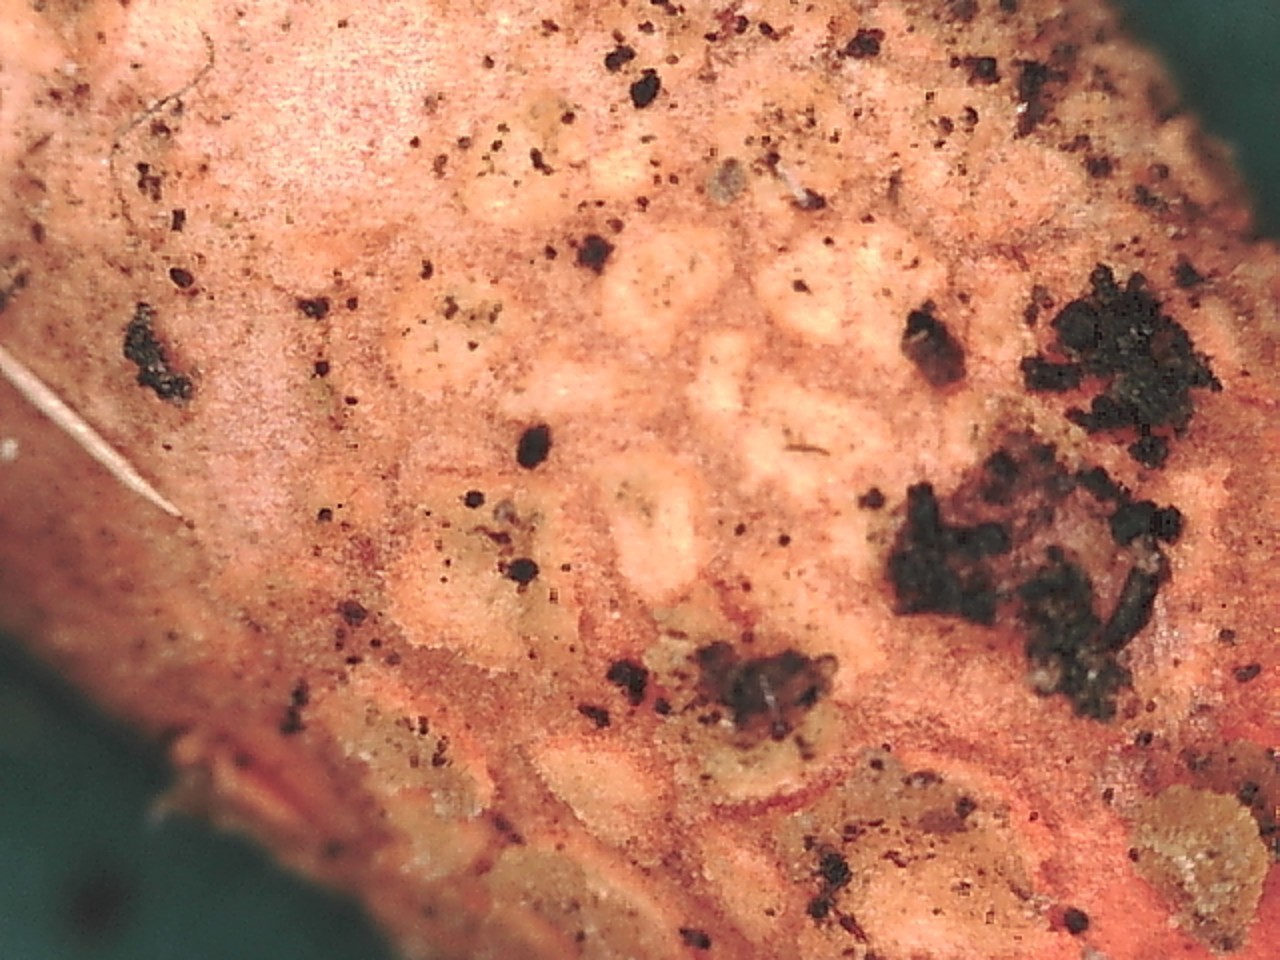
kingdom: Fungi
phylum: Basidiomycota
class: Agaricomycetes
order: Boletales
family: Calostomataceae
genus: Calostoma
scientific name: Calostoma japonicum
